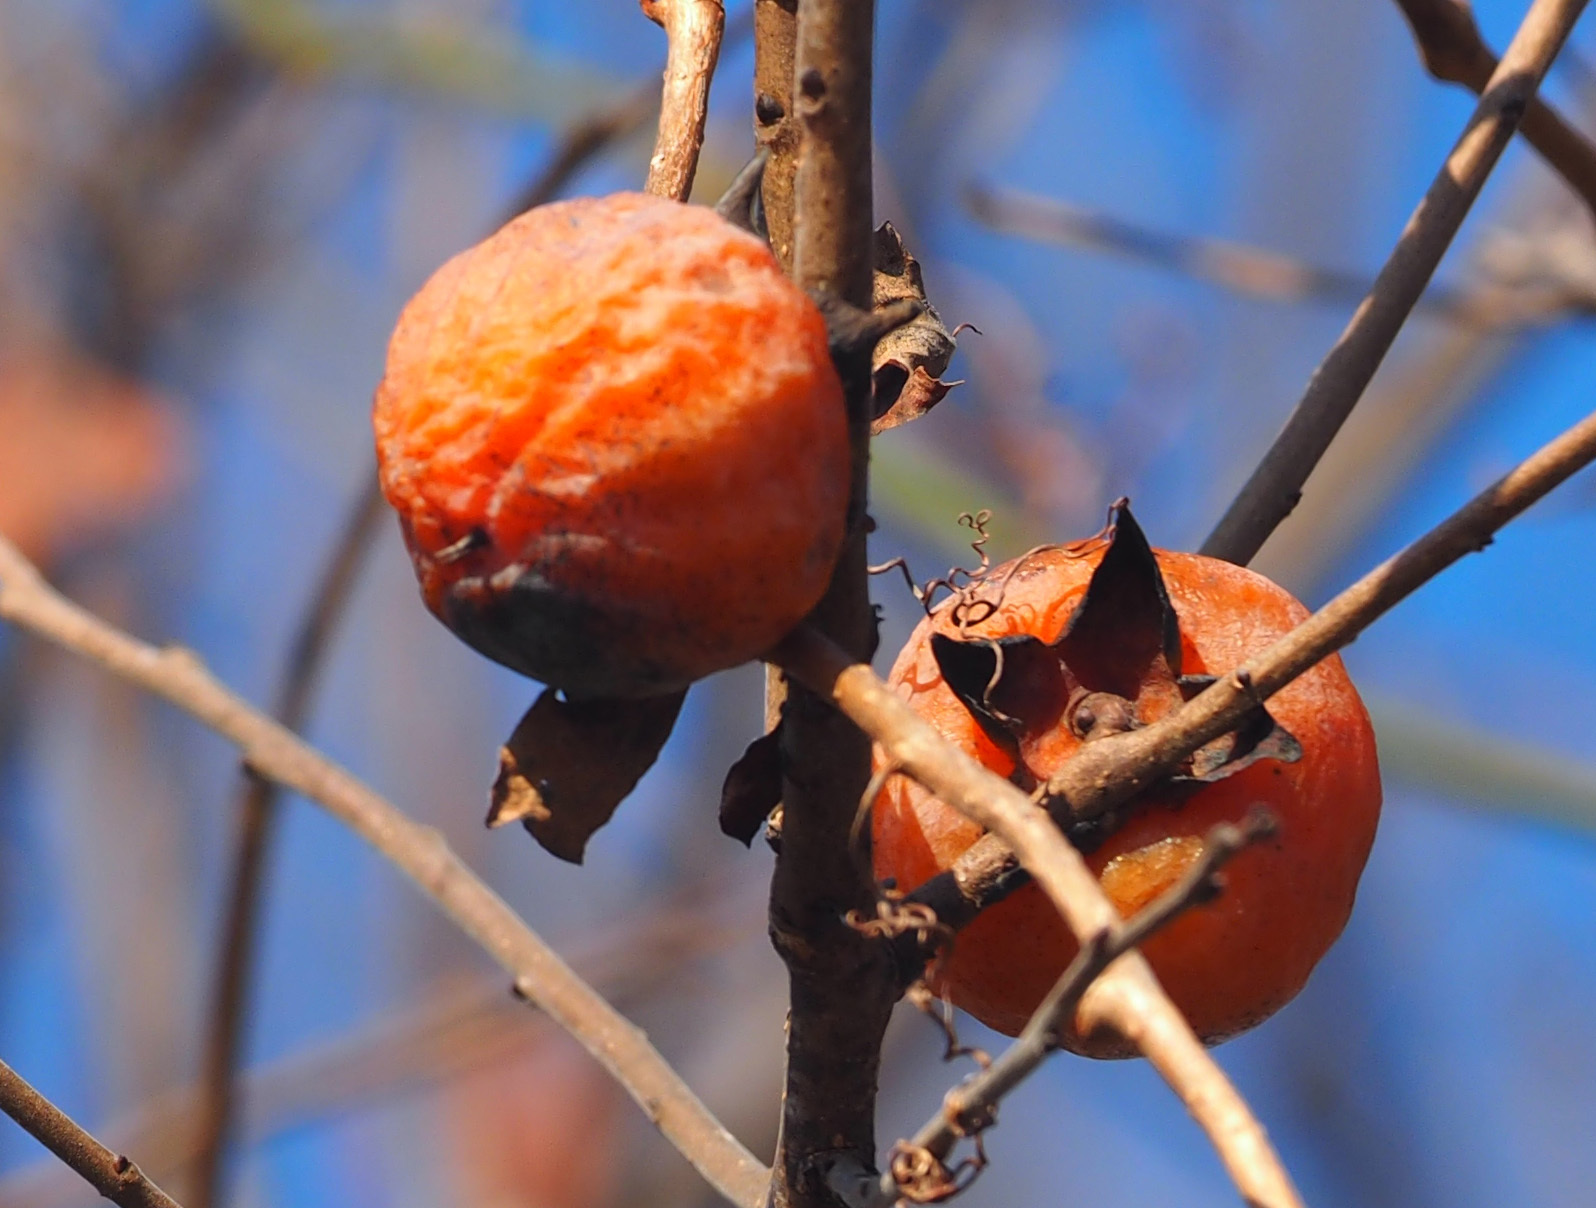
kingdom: Plantae
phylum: Tracheophyta
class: Magnoliopsida
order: Ericales
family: Ebenaceae
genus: Diospyros
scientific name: Diospyros virginiana
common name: Persimmon
